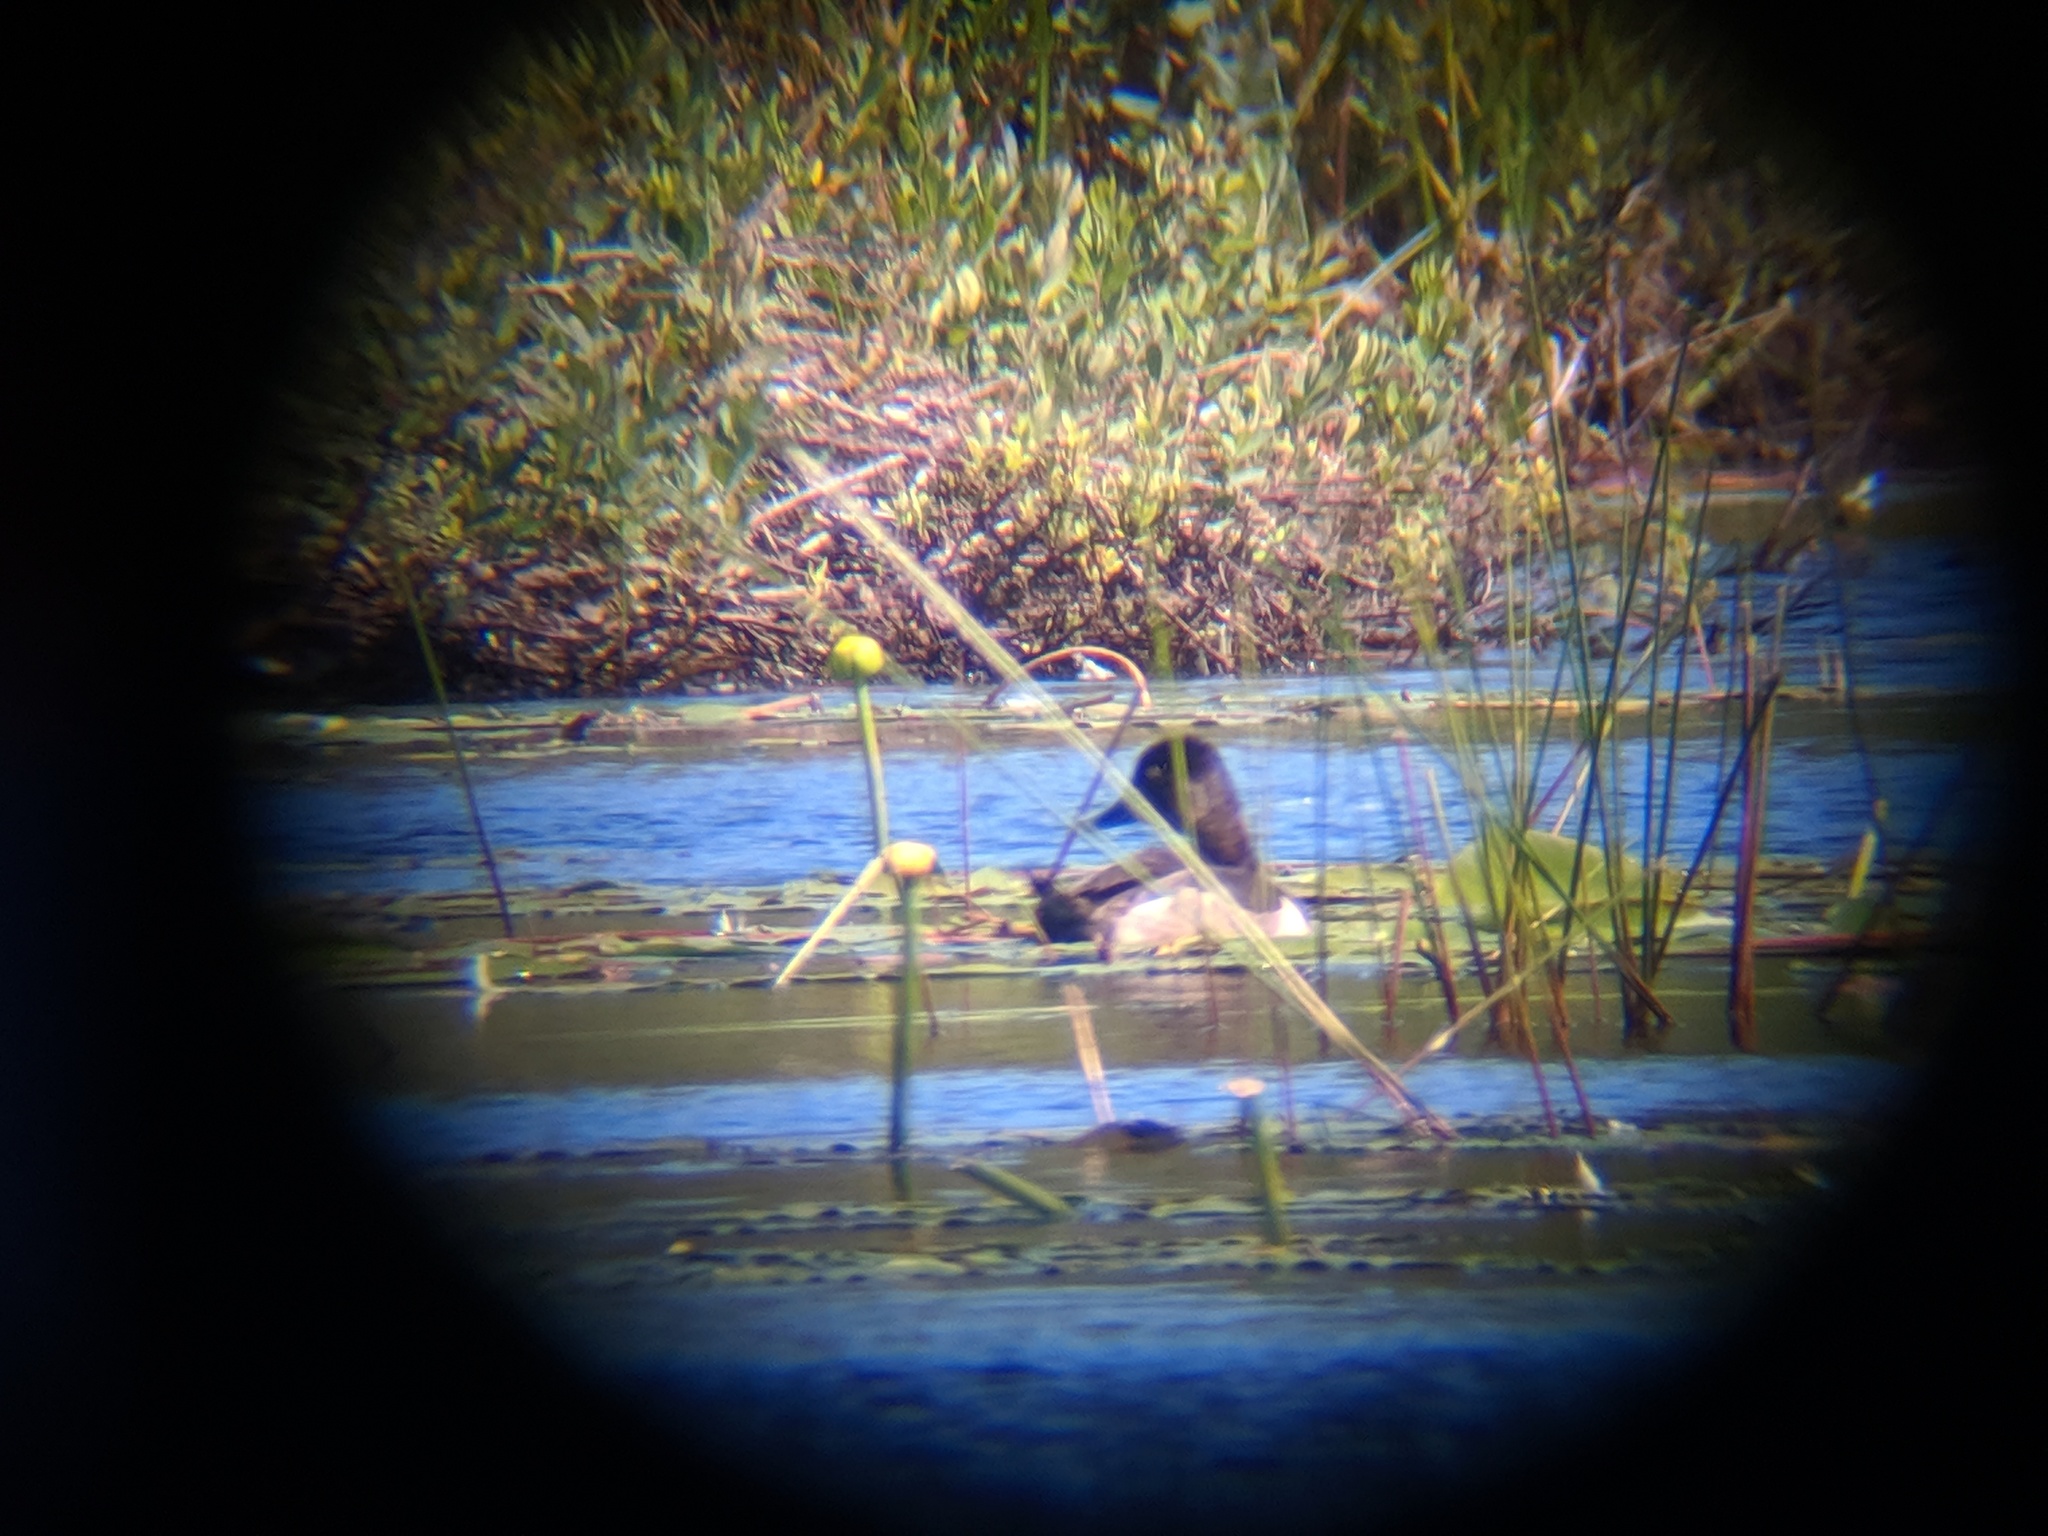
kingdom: Animalia
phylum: Chordata
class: Aves
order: Anseriformes
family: Anatidae
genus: Aythya
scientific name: Aythya collaris
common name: Ring-necked duck
